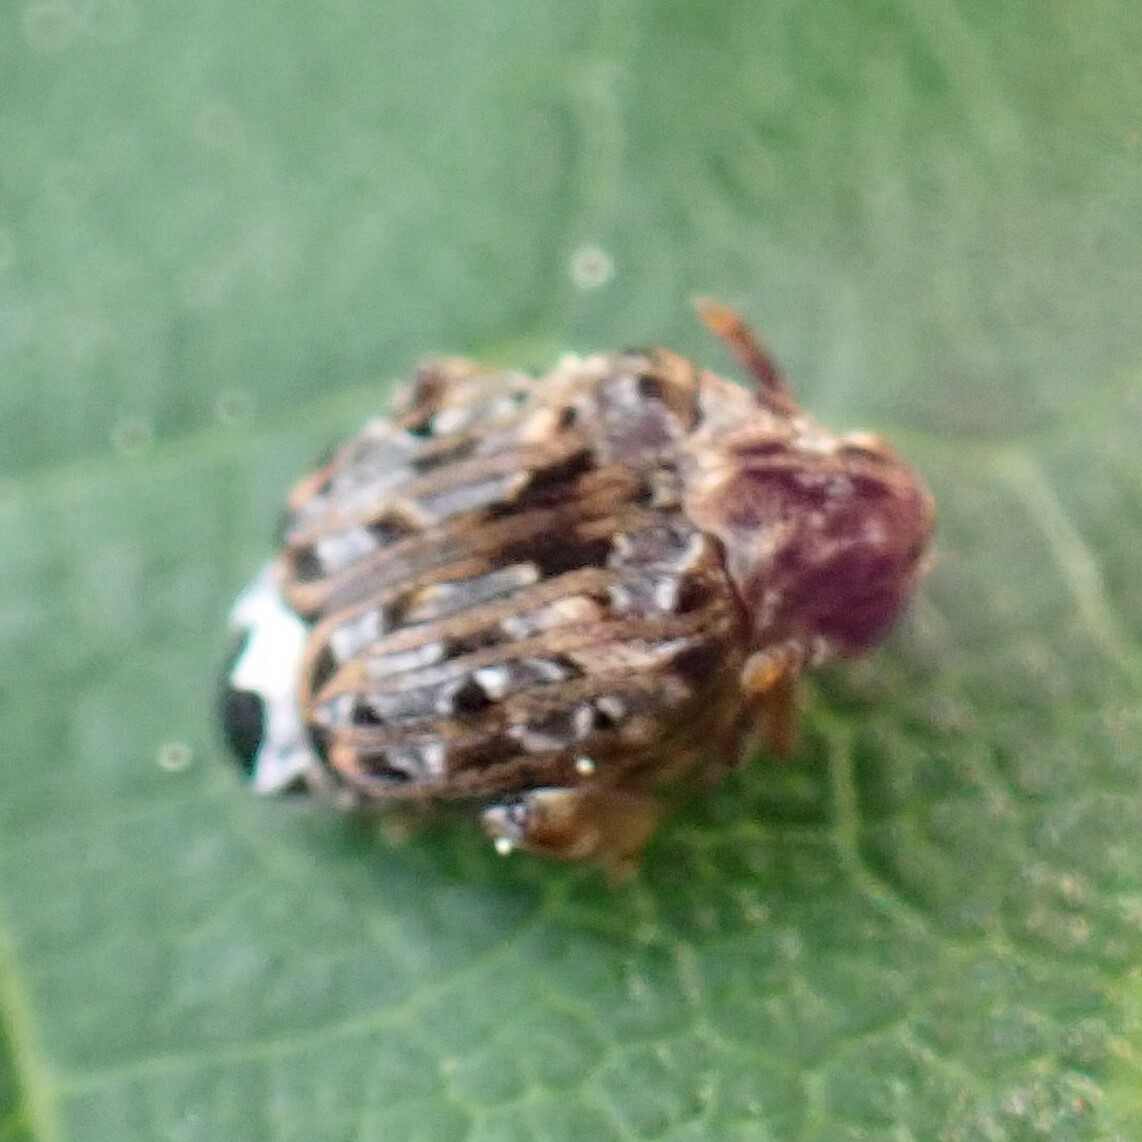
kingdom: Animalia
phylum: Arthropoda
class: Insecta
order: Coleoptera
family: Chrysomelidae
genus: Gibbobruchus
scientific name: Gibbobruchus mimus
